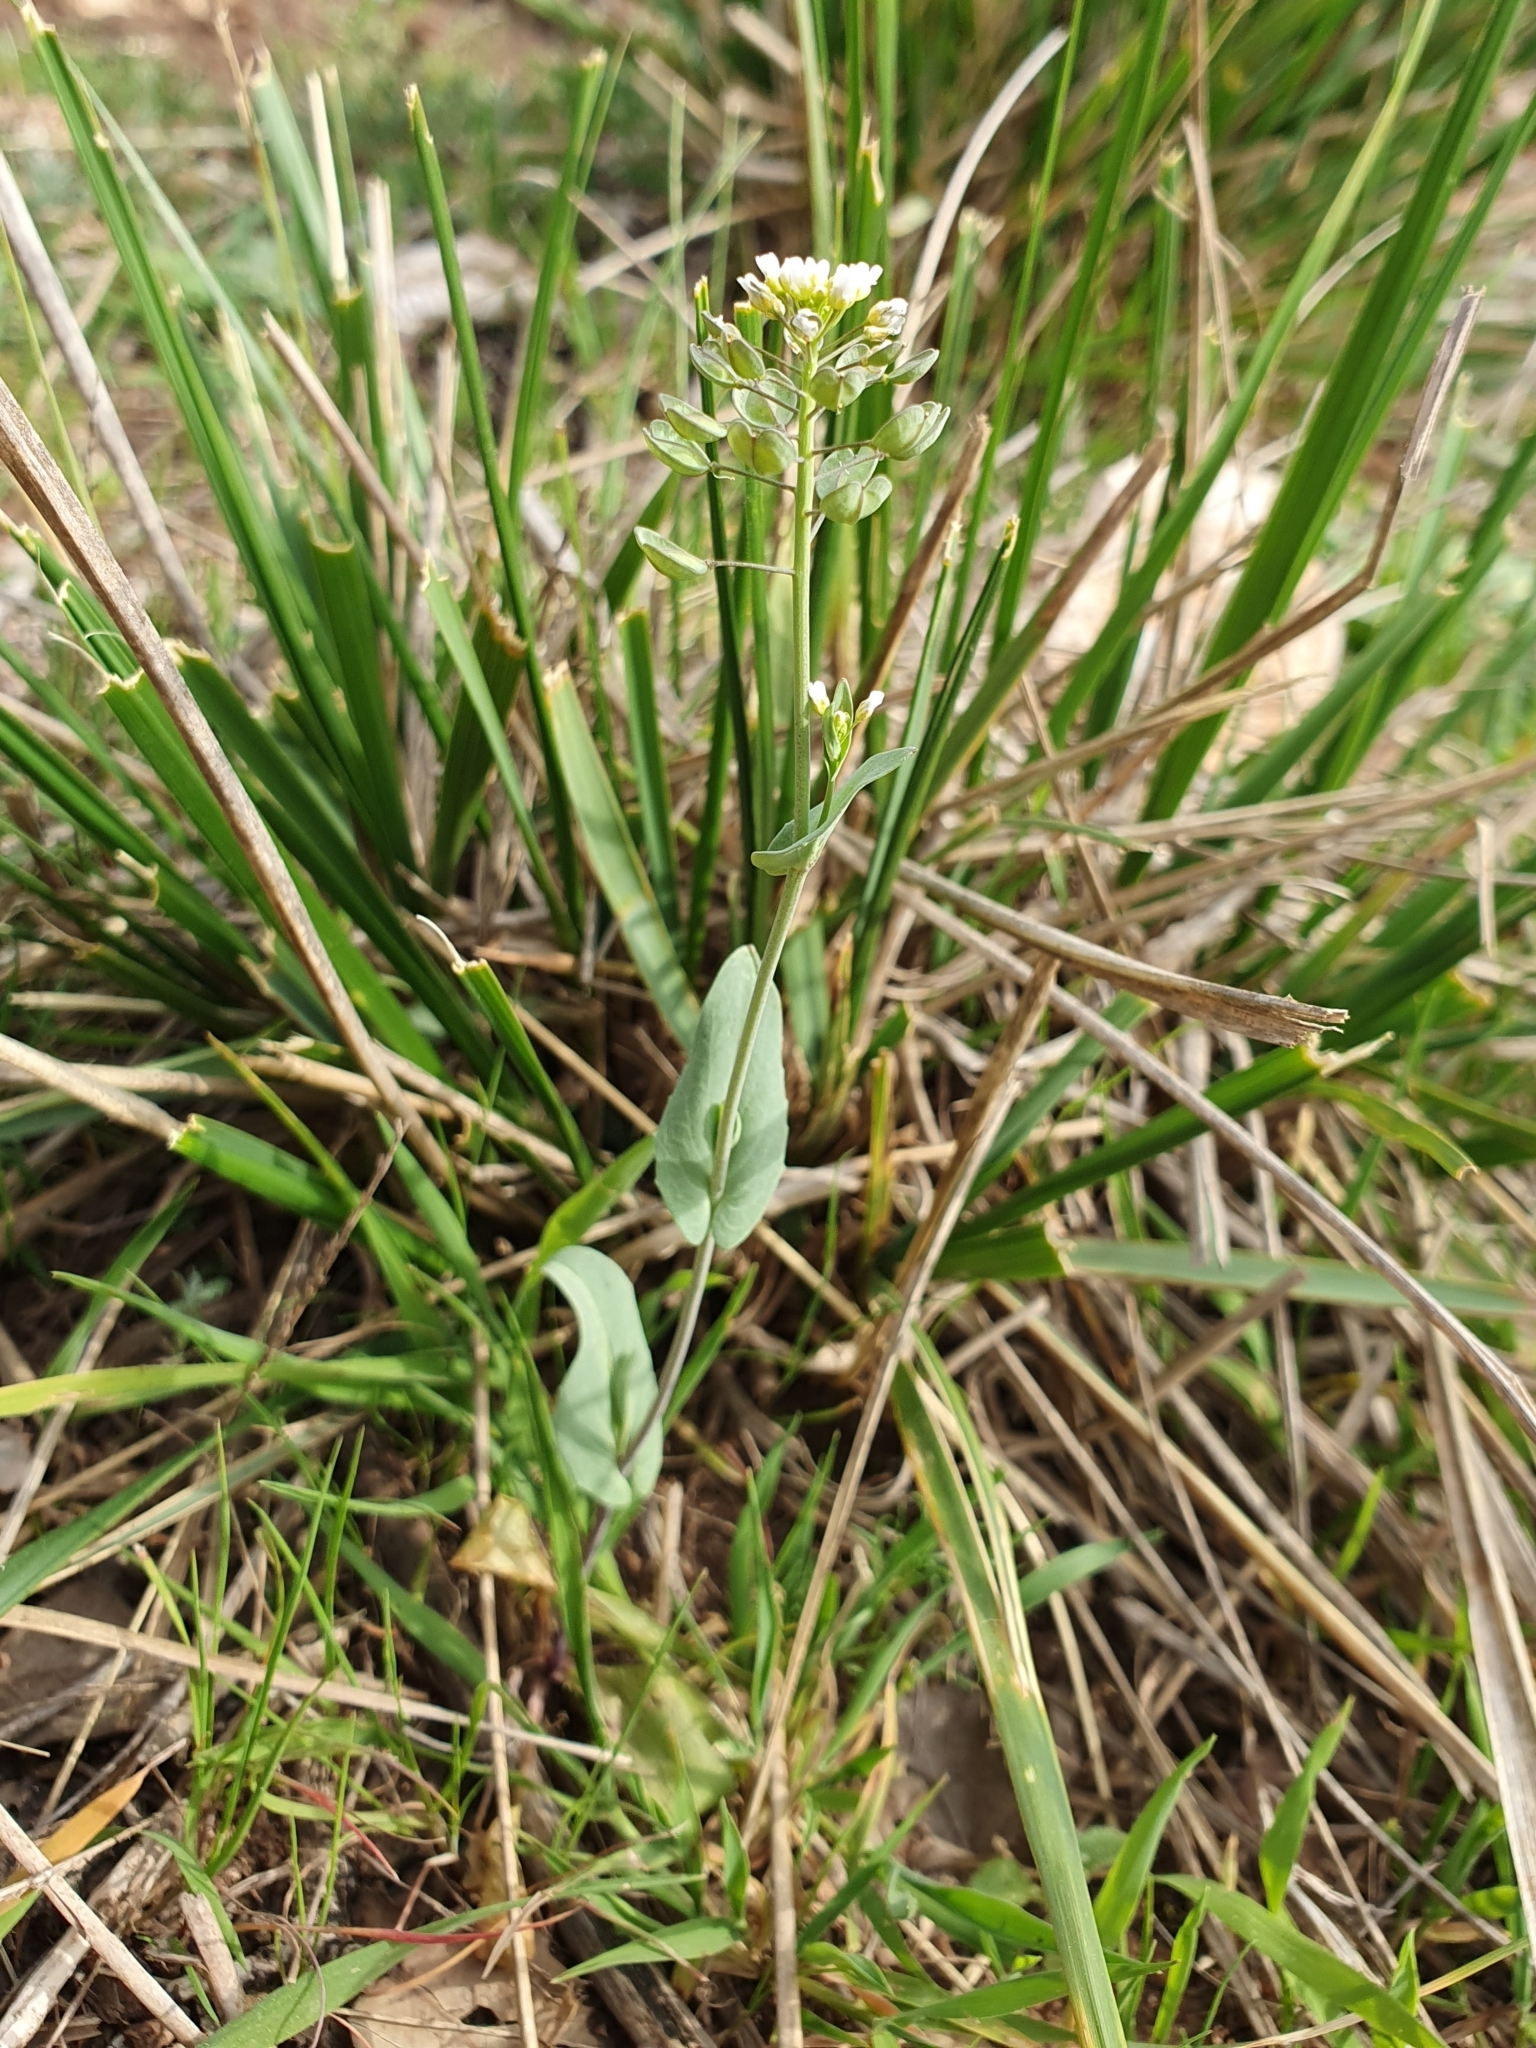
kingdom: Plantae
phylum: Tracheophyta
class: Magnoliopsida
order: Brassicales
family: Brassicaceae
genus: Noccaea
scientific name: Noccaea perfoliata
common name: Perfoliate pennycress
